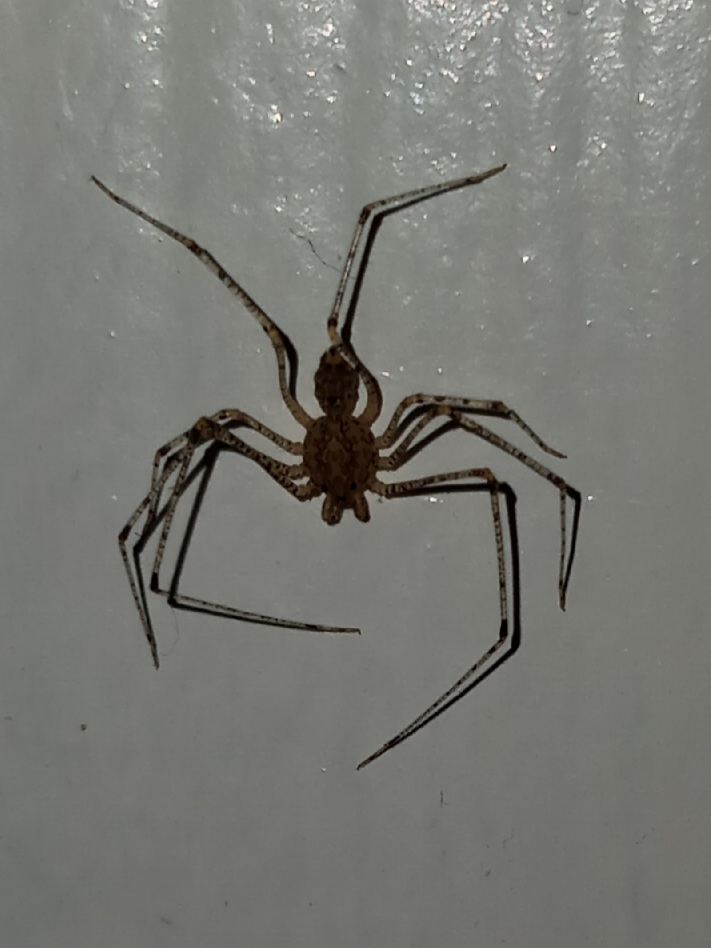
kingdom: Animalia
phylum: Arthropoda
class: Arachnida
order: Araneae
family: Scytodidae
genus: Scytodes
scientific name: Scytodes atlacoya
